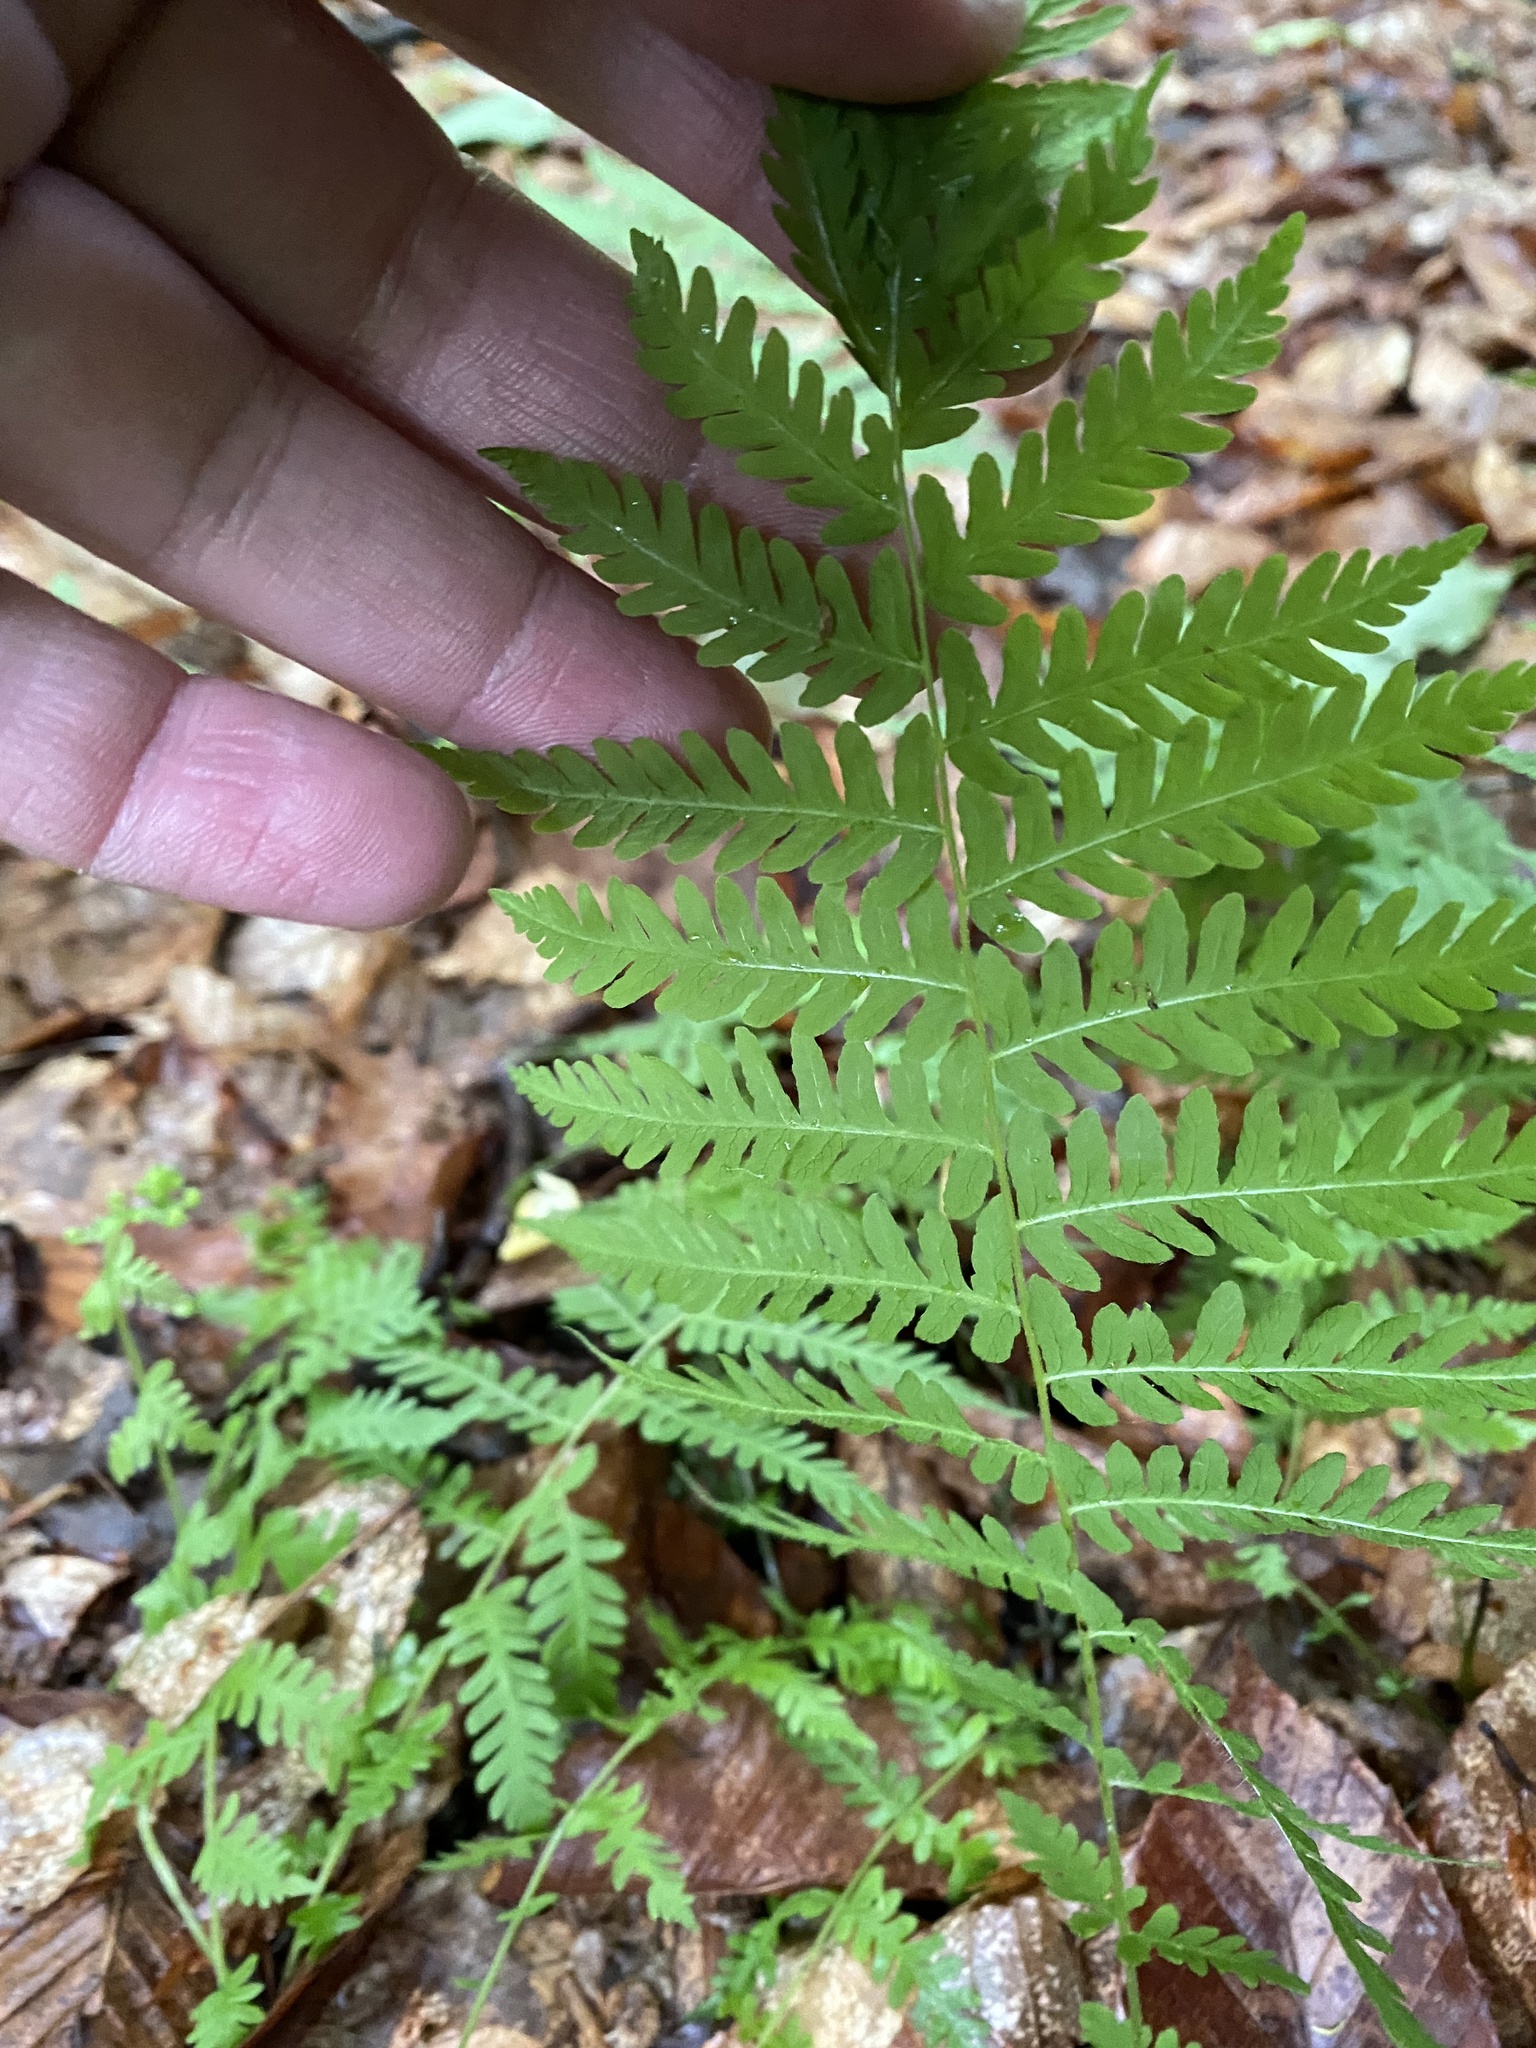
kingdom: Plantae
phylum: Tracheophyta
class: Polypodiopsida
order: Polypodiales
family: Thelypteridaceae
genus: Amauropelta
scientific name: Amauropelta noveboracensis
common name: New york fern
